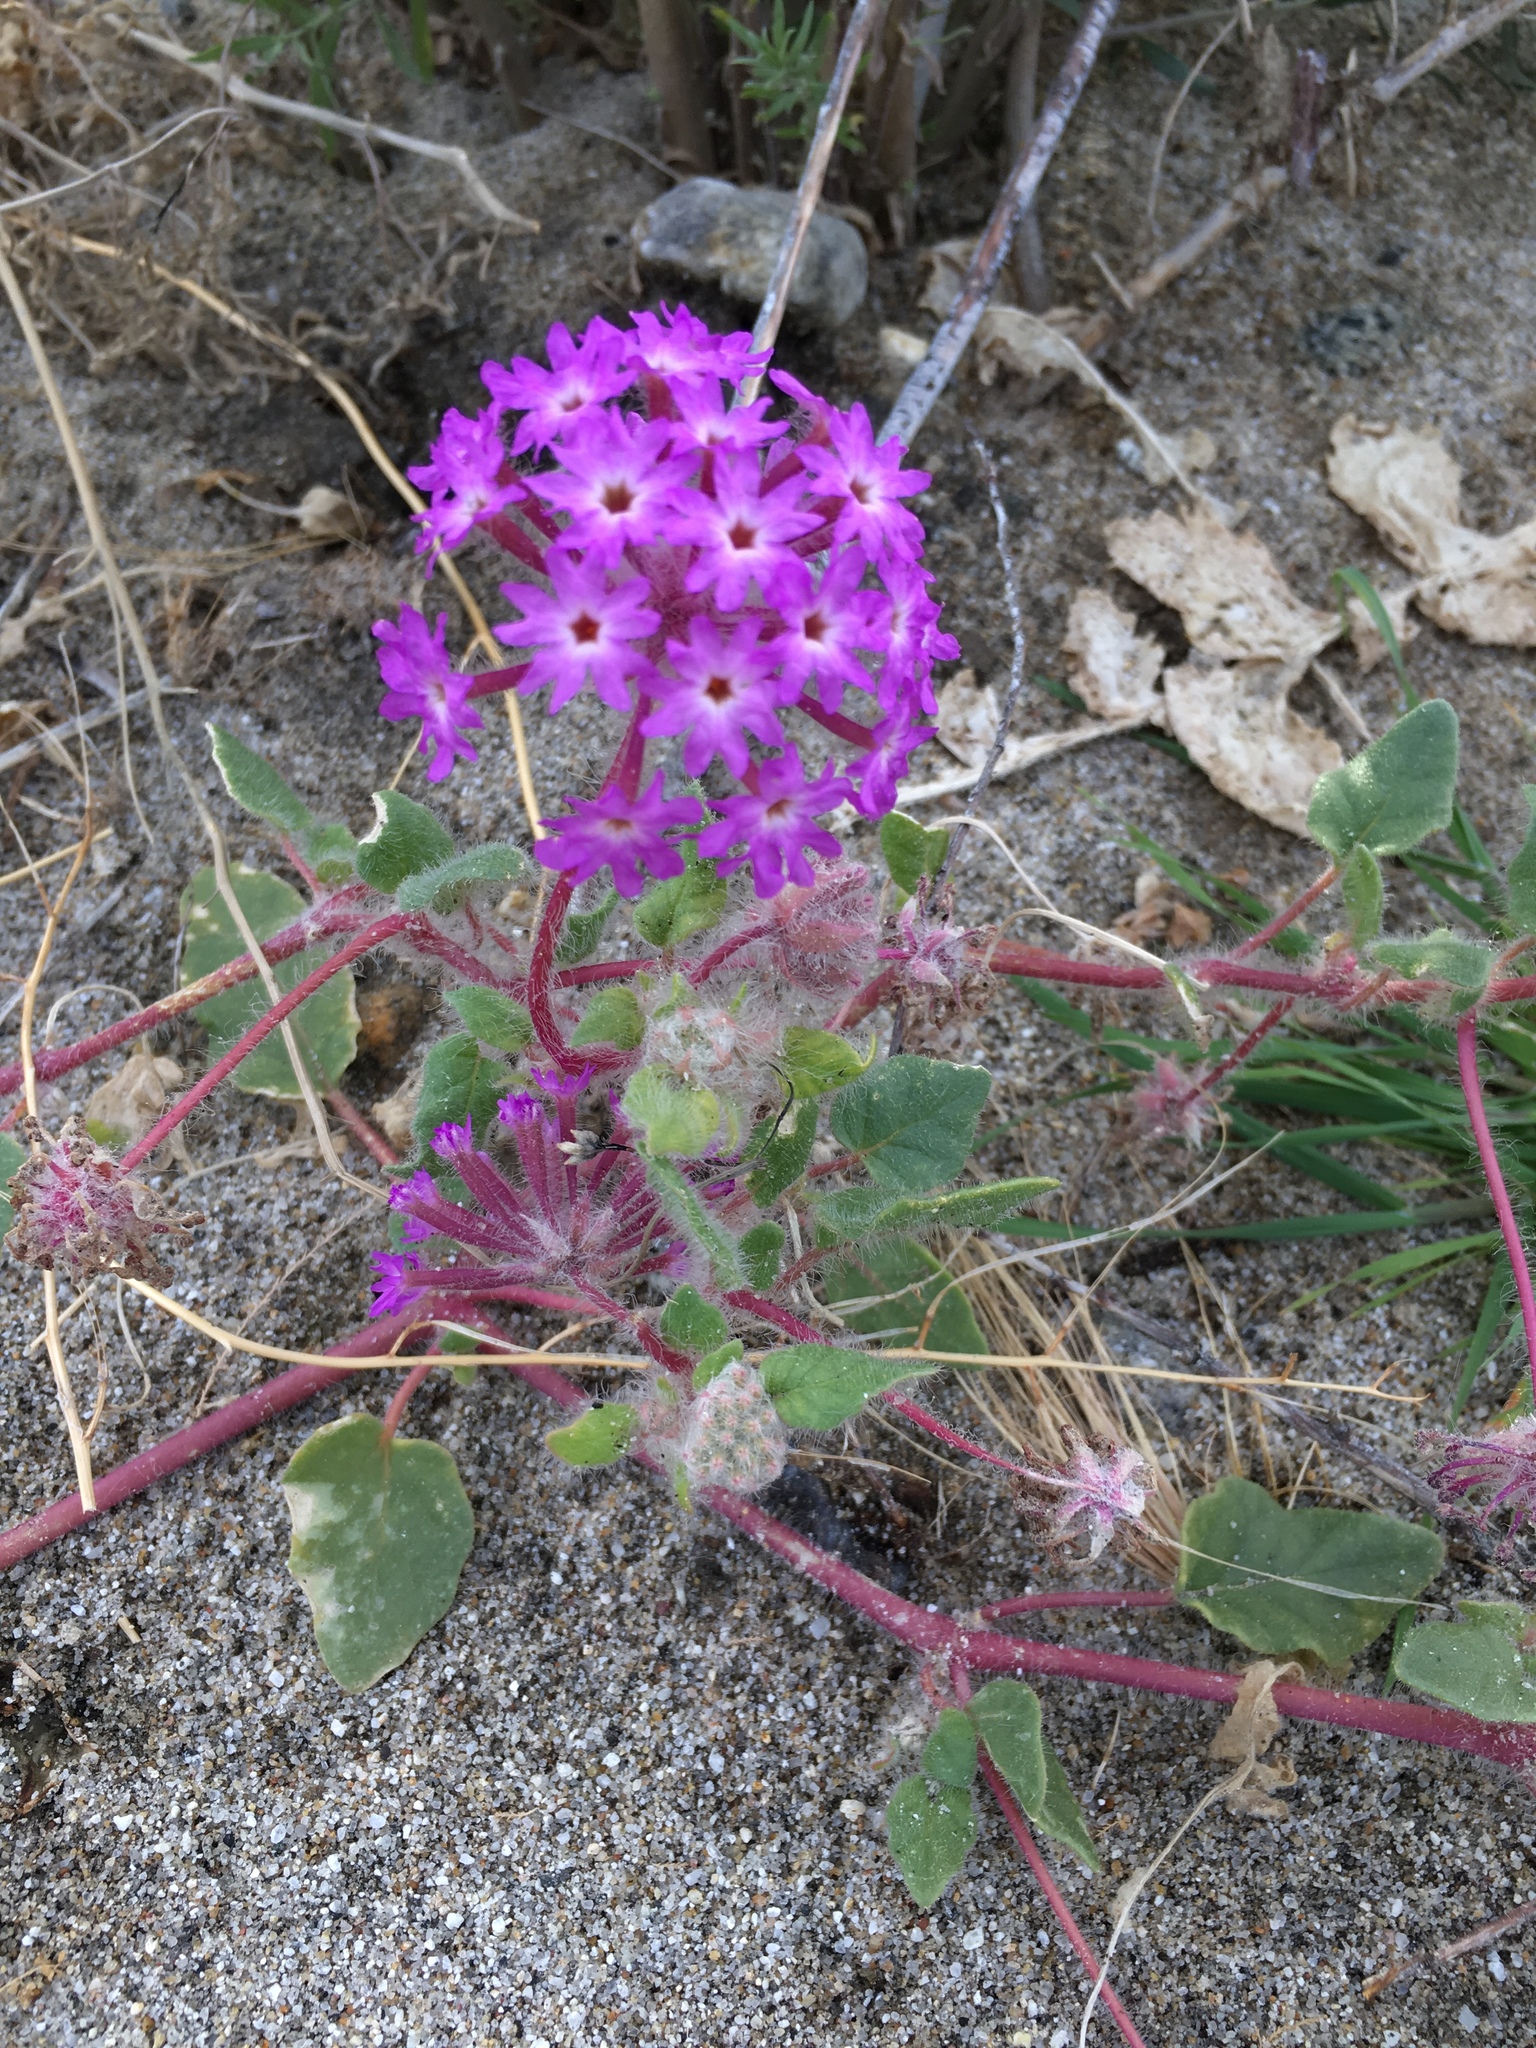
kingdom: Plantae
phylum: Tracheophyta
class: Magnoliopsida
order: Caryophyllales
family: Nyctaginaceae
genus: Abronia
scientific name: Abronia villosa
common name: Desert sand-verbena
